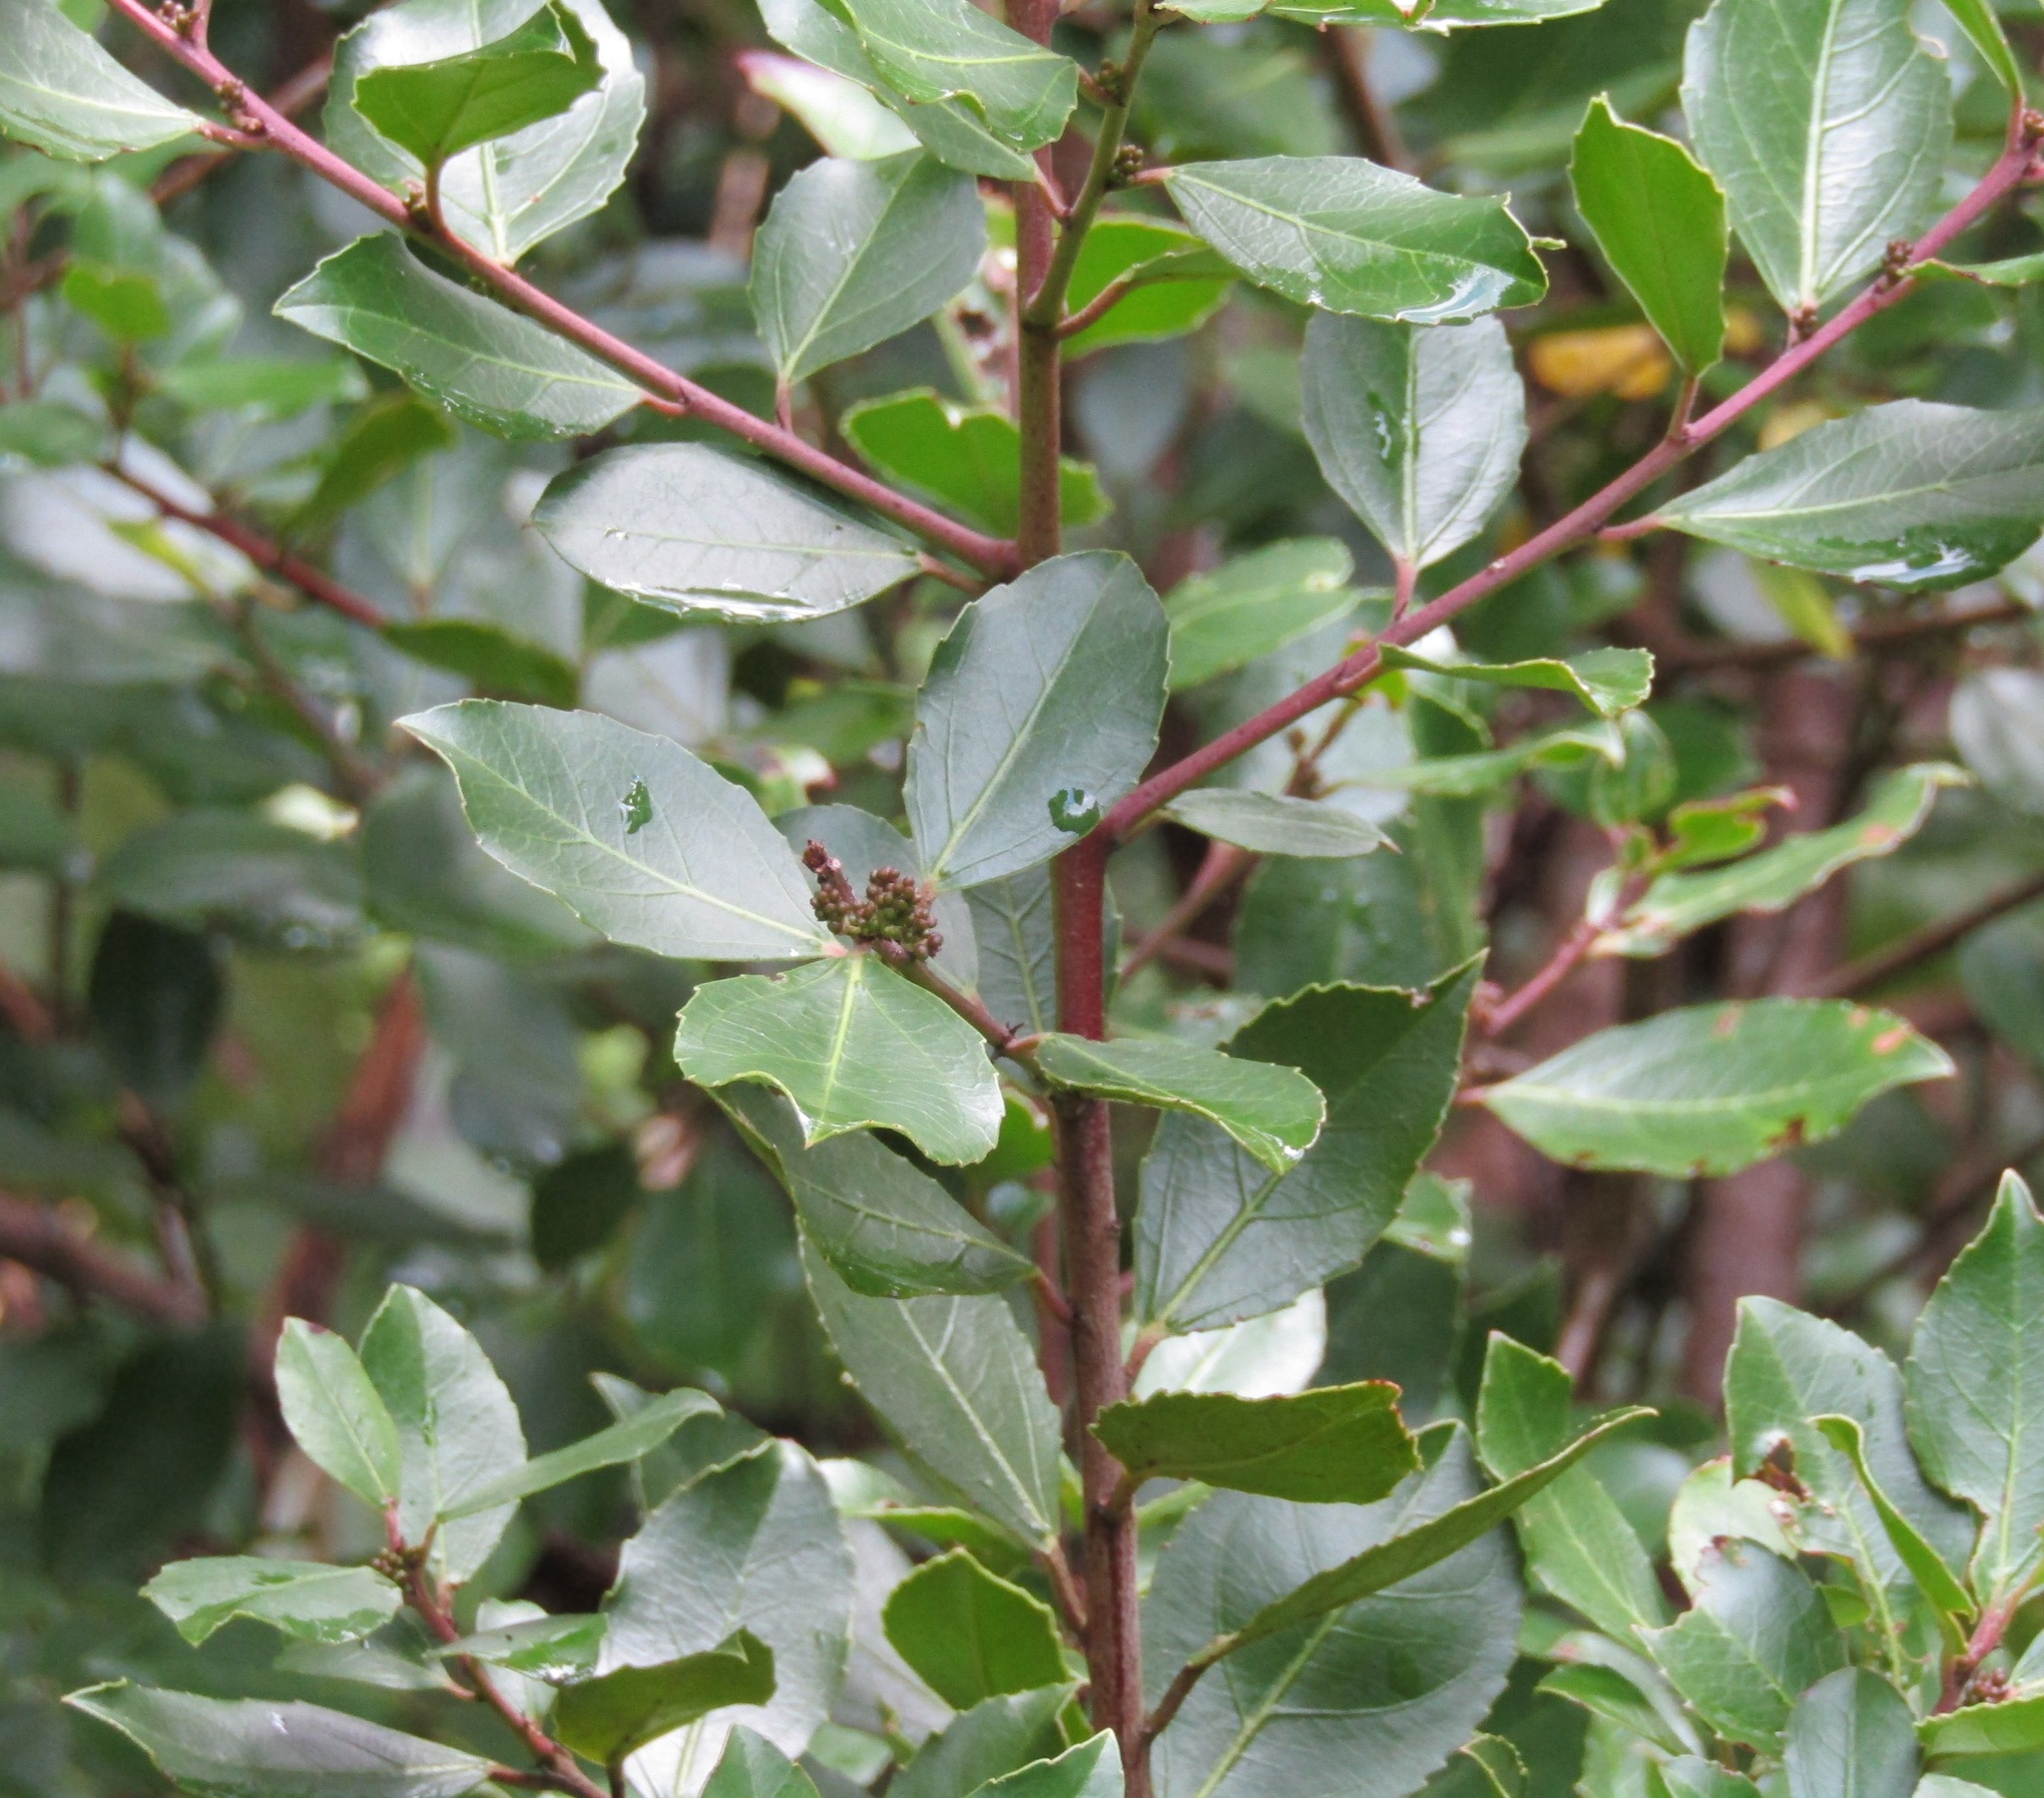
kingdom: Plantae
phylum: Tracheophyta
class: Magnoliopsida
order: Rosales
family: Rhamnaceae
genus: Rhamnus
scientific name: Rhamnus alaternus
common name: Mediterranean buckthorn
